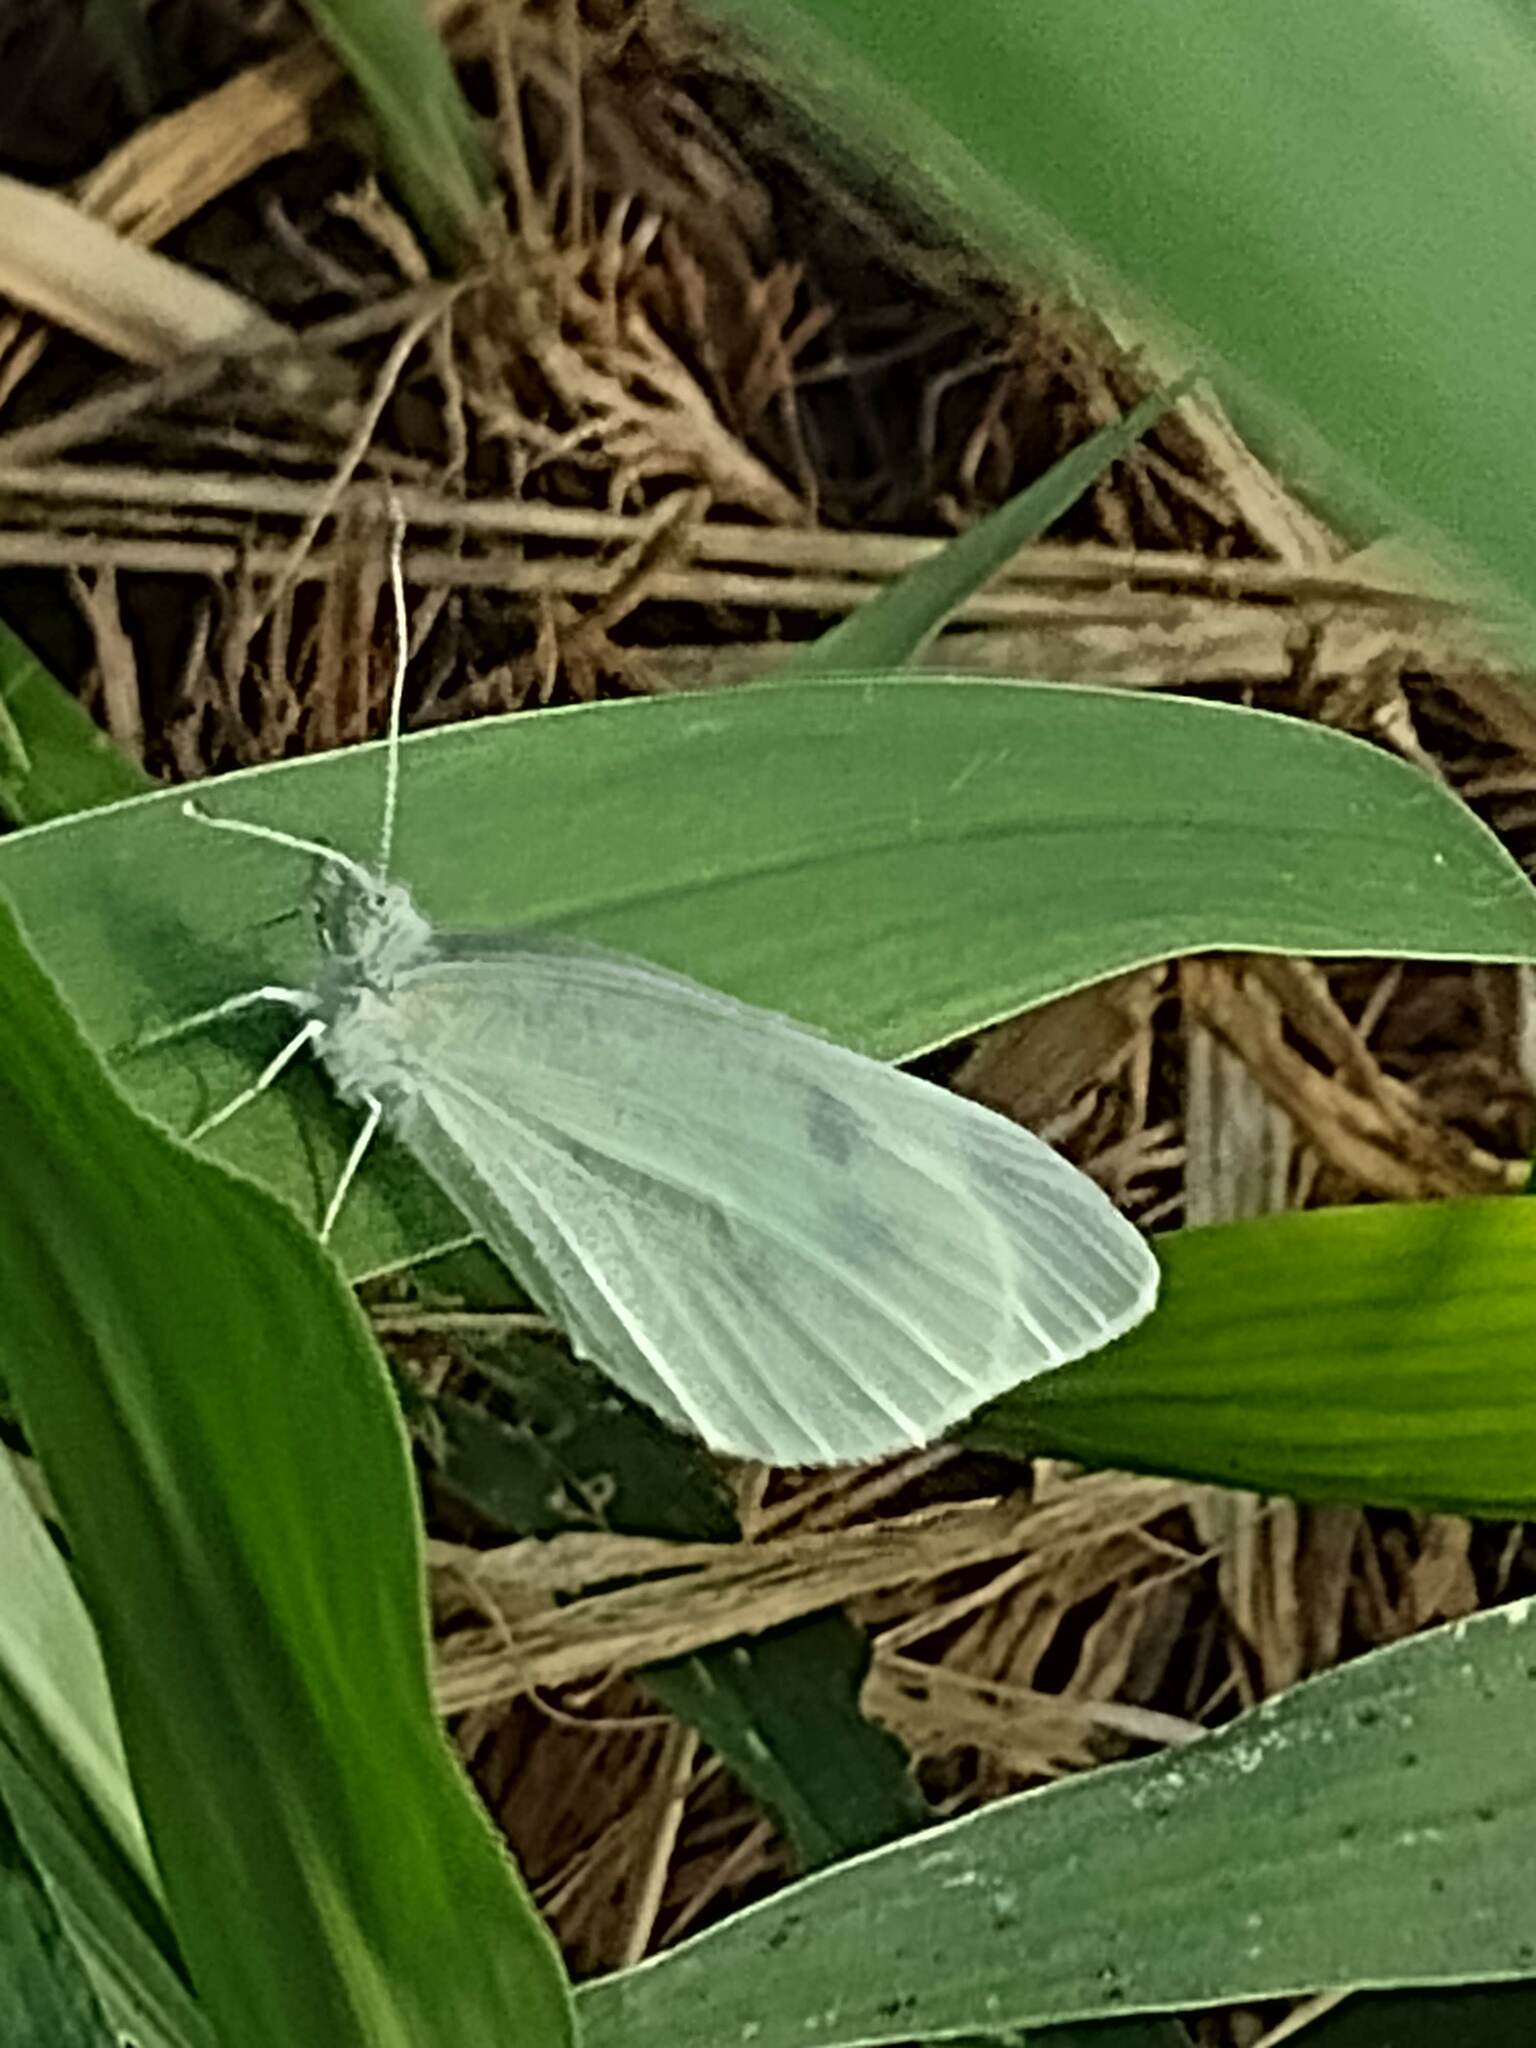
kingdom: Animalia
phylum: Arthropoda
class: Insecta
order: Lepidoptera
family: Pieridae
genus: Pieris
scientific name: Pieris rapae
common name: Small white
